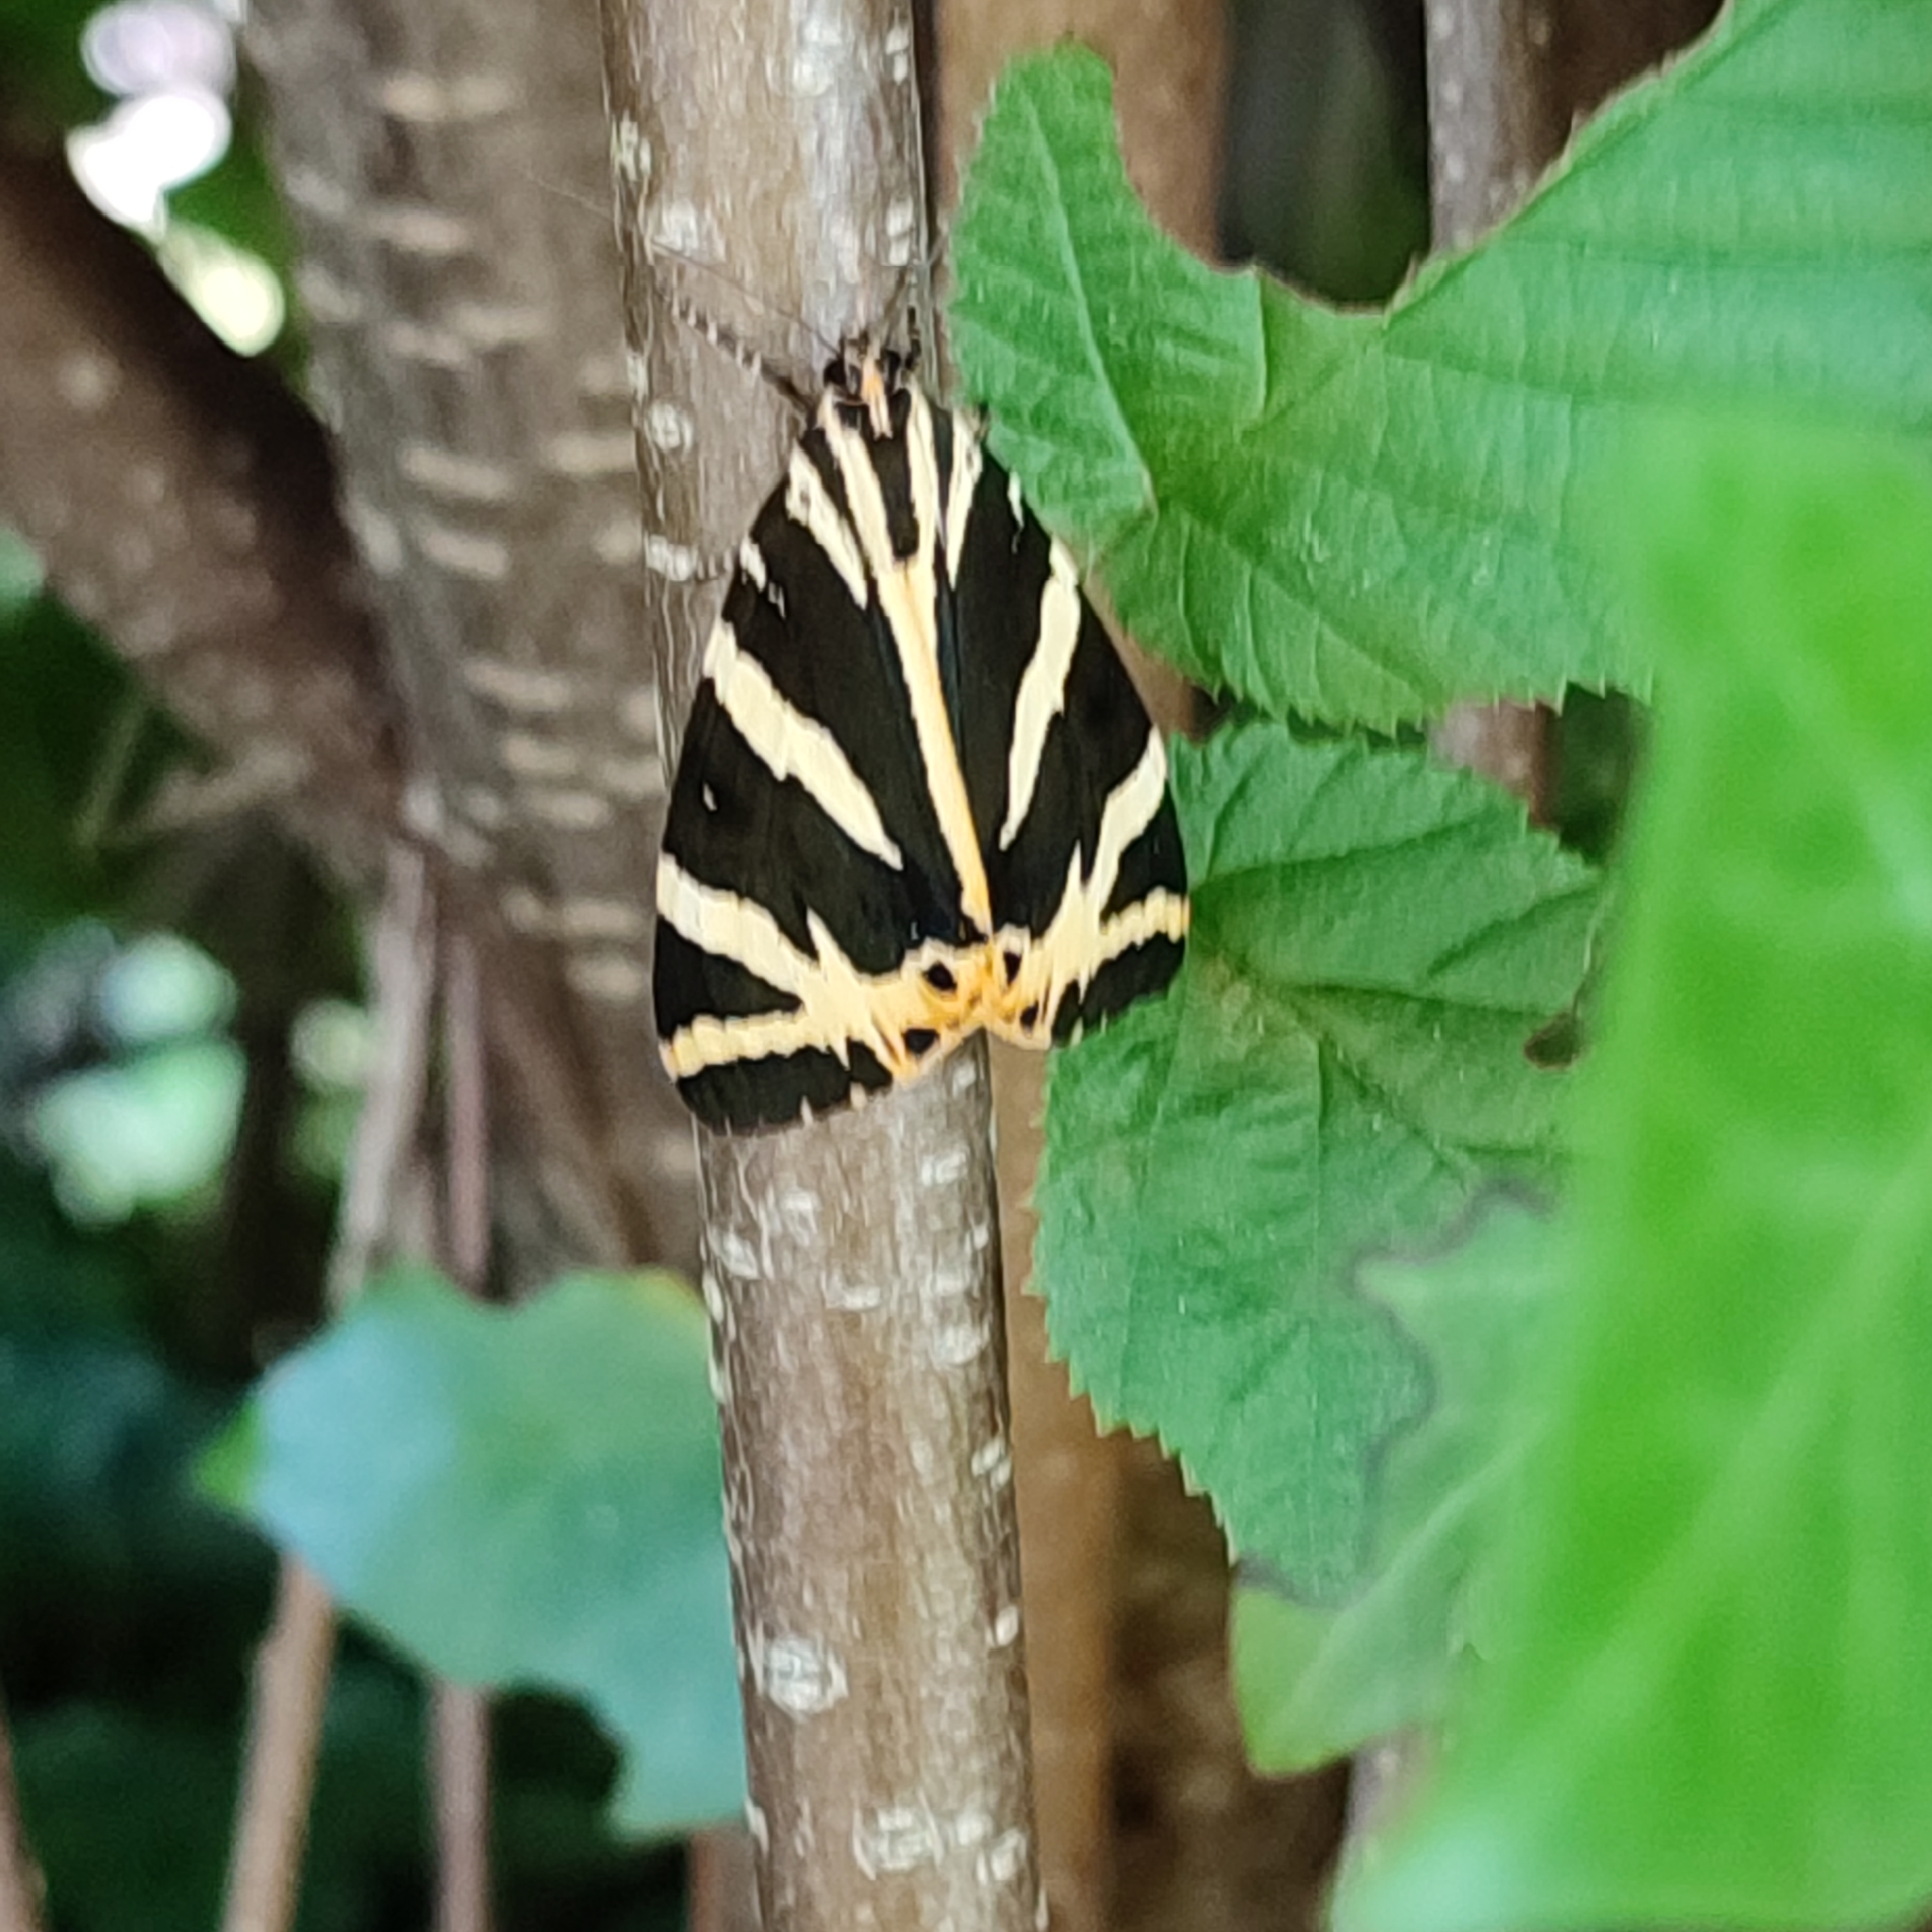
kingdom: Animalia
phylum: Arthropoda
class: Insecta
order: Lepidoptera
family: Erebidae
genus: Euplagia
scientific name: Euplagia quadripunctaria
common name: Jersey tiger
